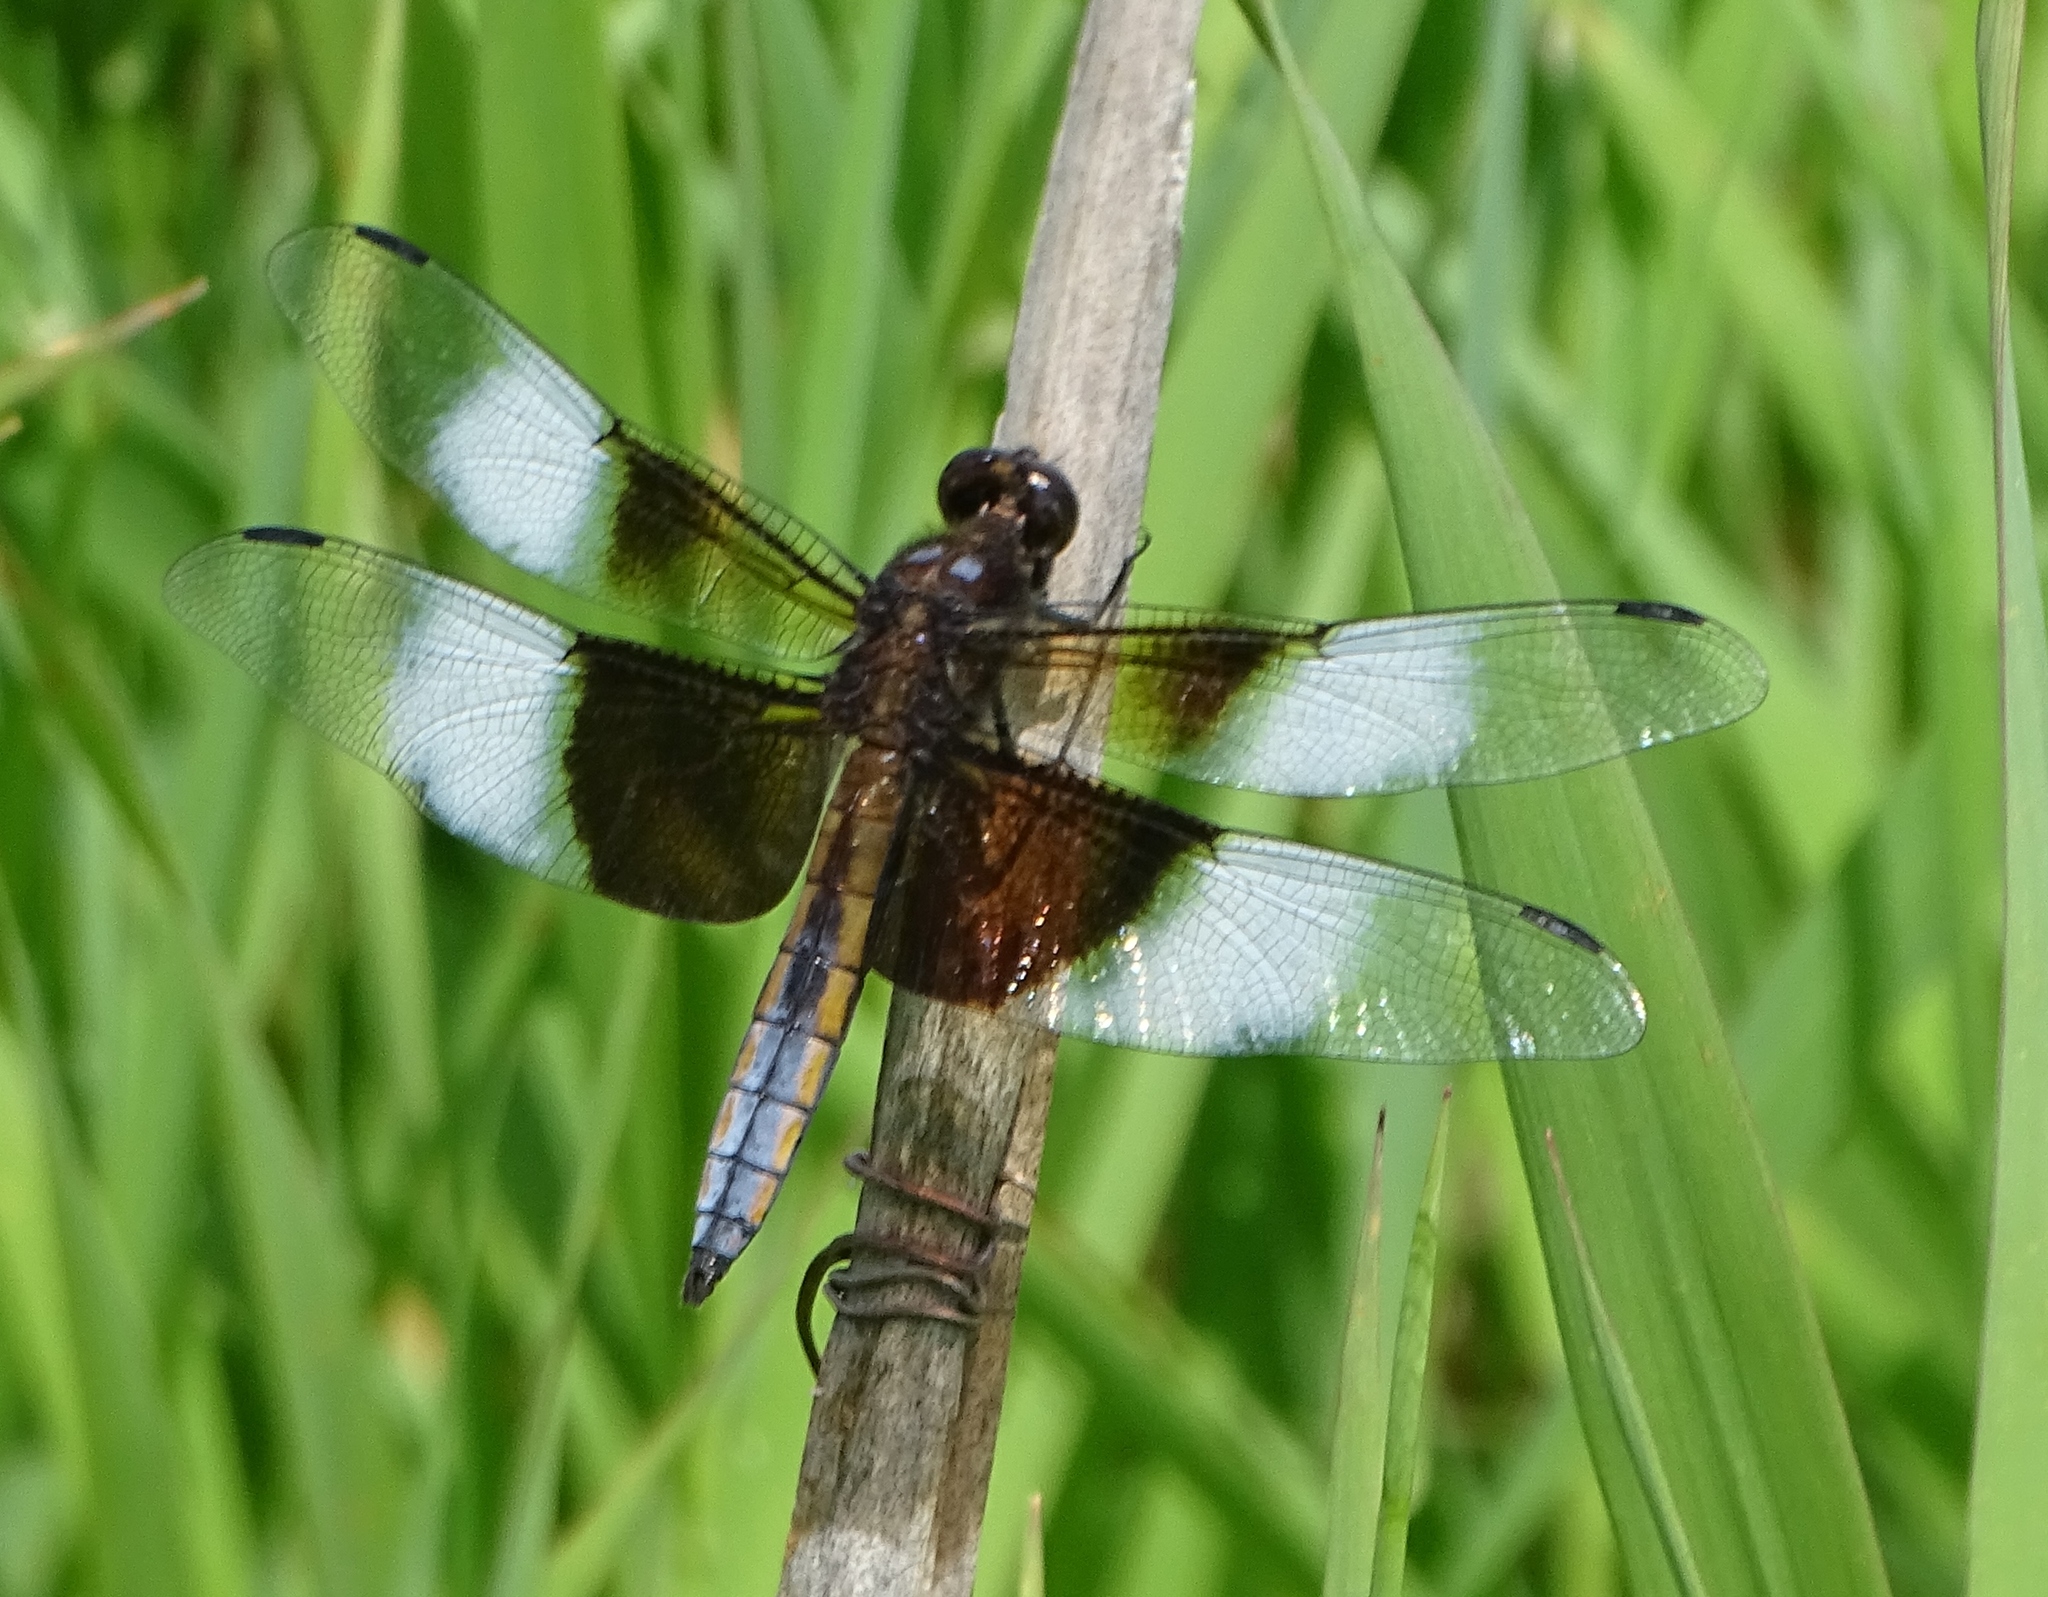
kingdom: Animalia
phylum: Arthropoda
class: Insecta
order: Odonata
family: Libellulidae
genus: Libellula
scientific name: Libellula luctuosa
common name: Widow skimmer
